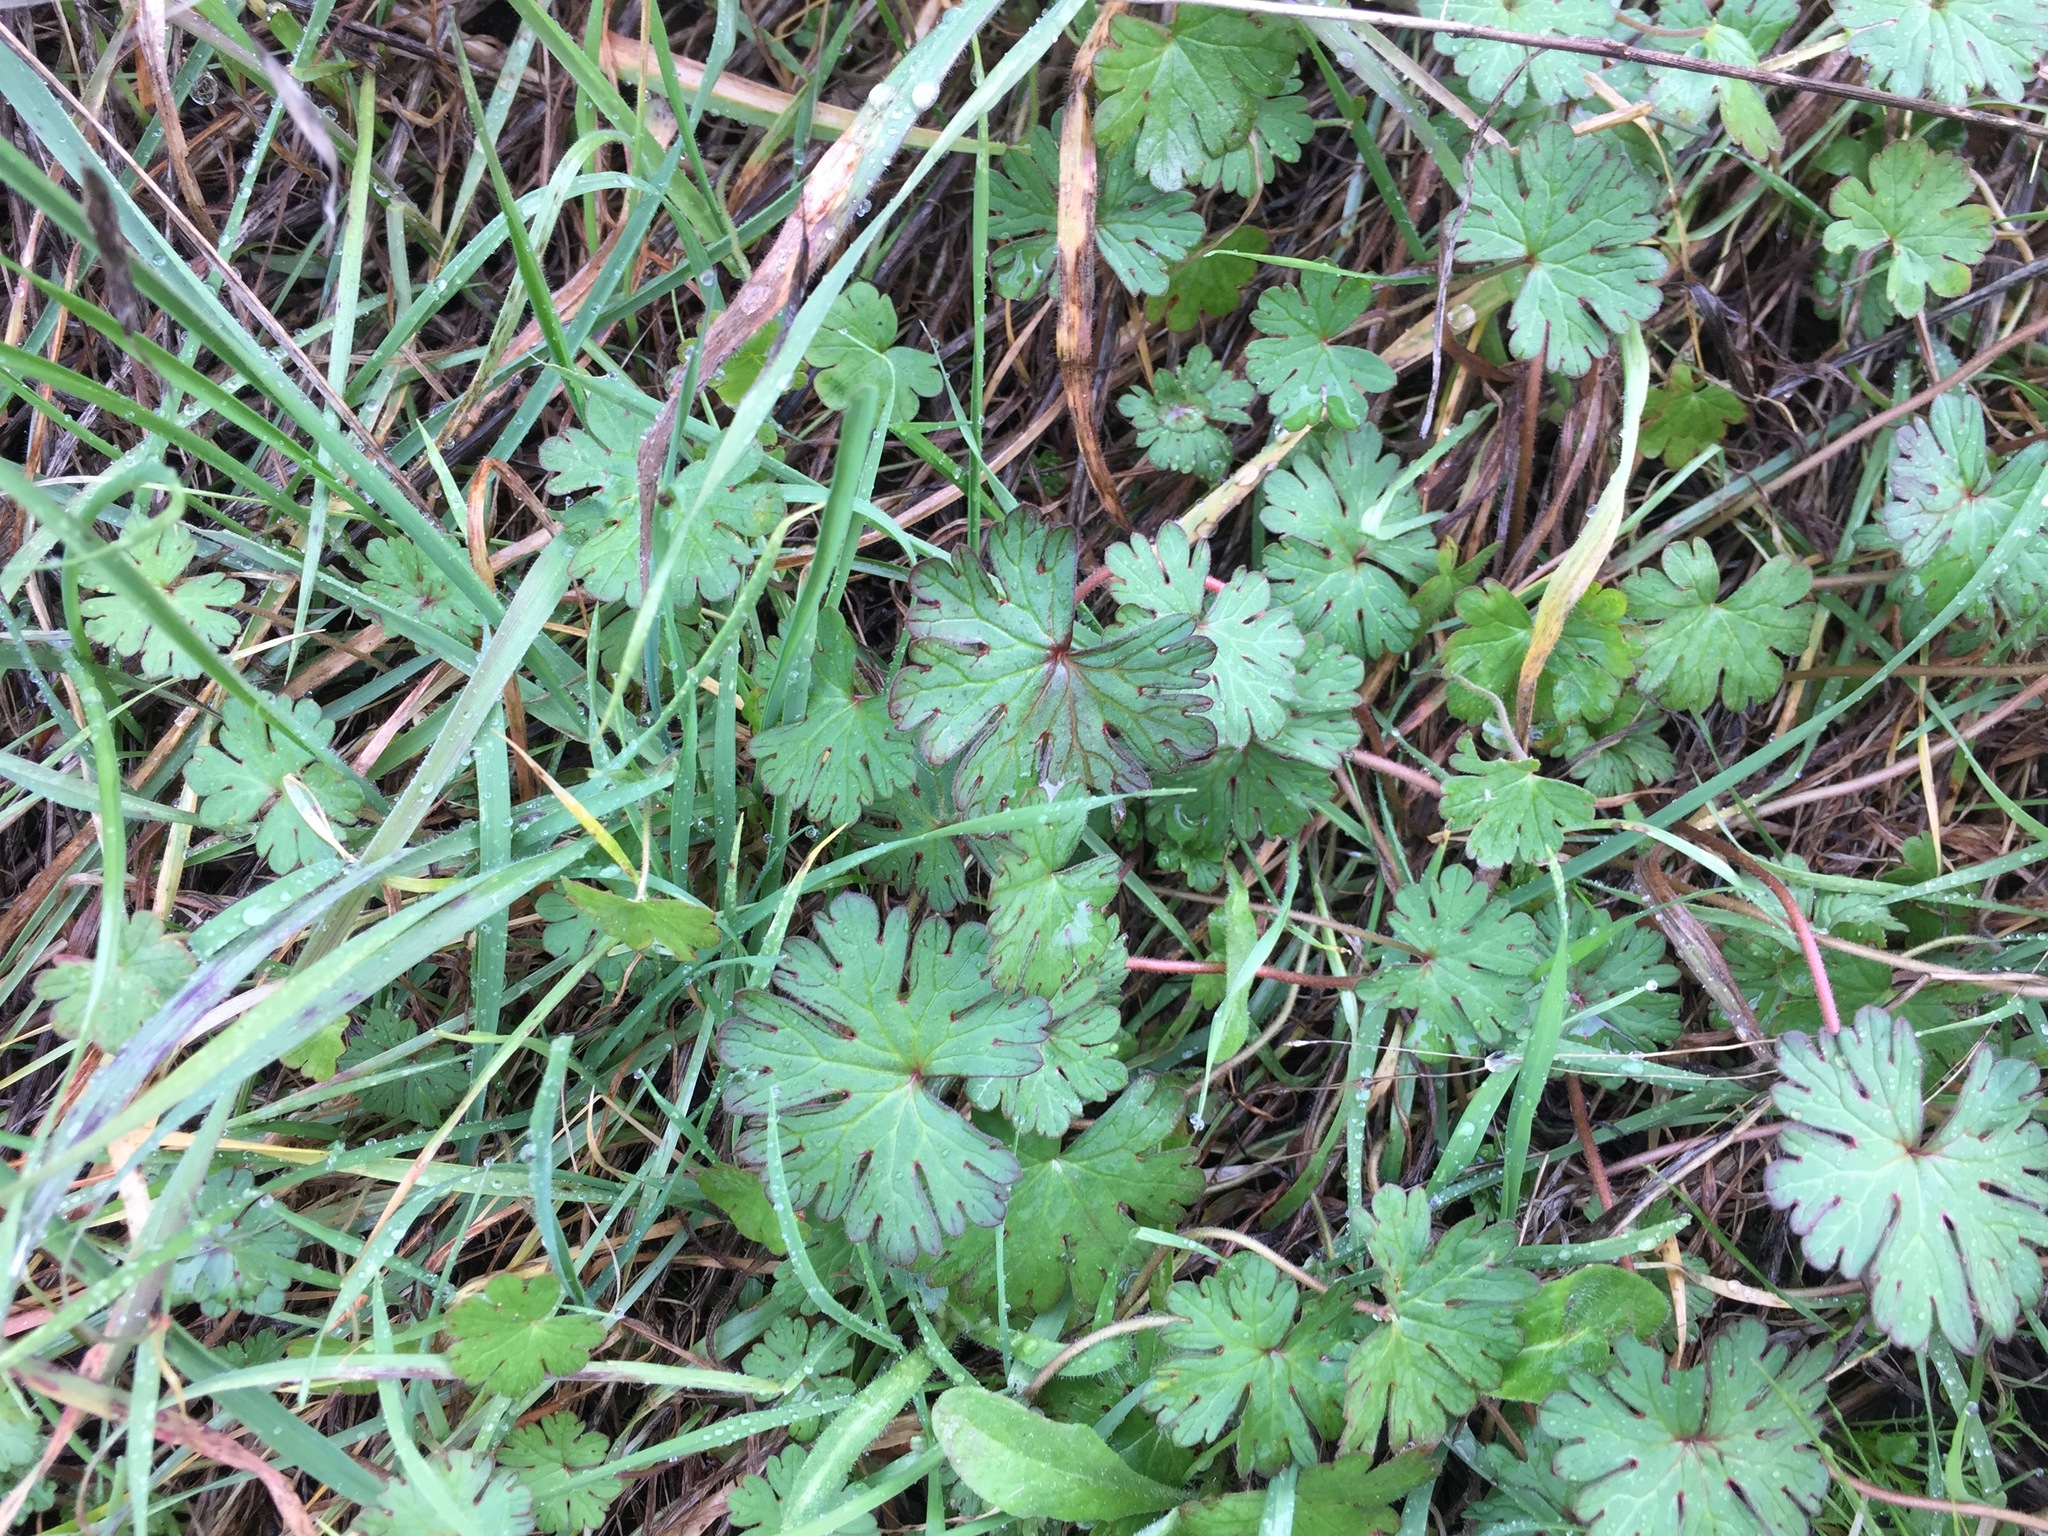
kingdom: Plantae
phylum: Tracheophyta
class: Magnoliopsida
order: Geraniales
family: Geraniaceae
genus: Geranium
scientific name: Geranium
